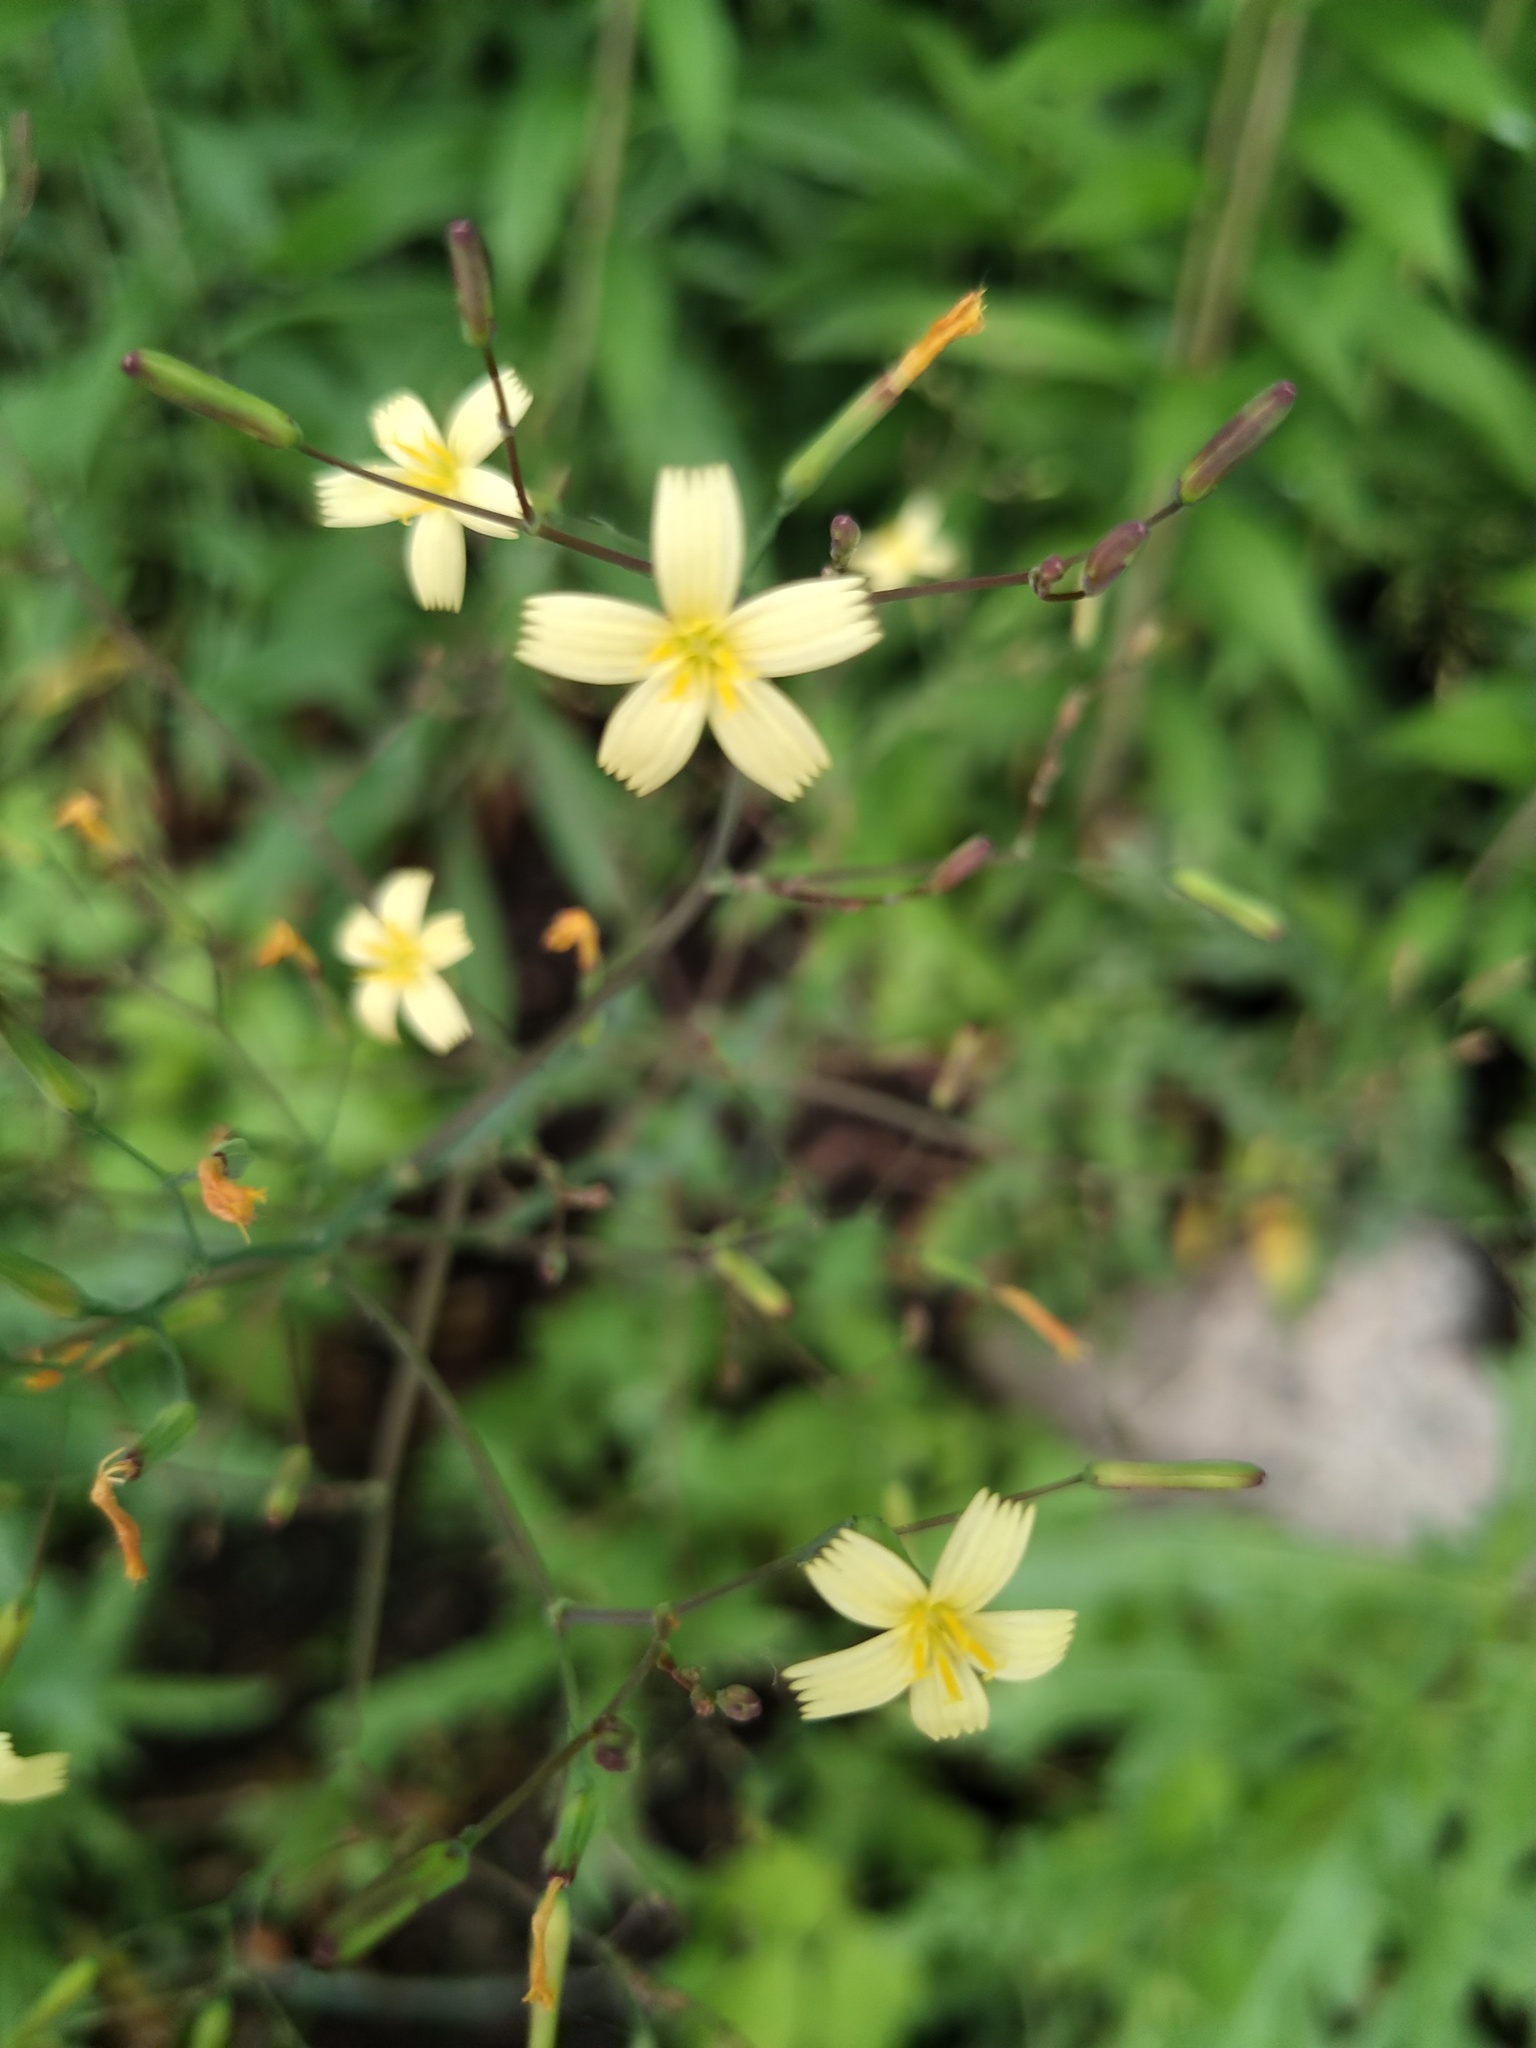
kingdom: Plantae
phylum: Tracheophyta
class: Magnoliopsida
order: Asterales
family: Asteraceae
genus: Mycelis
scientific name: Mycelis muralis
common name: Wall lettuce
